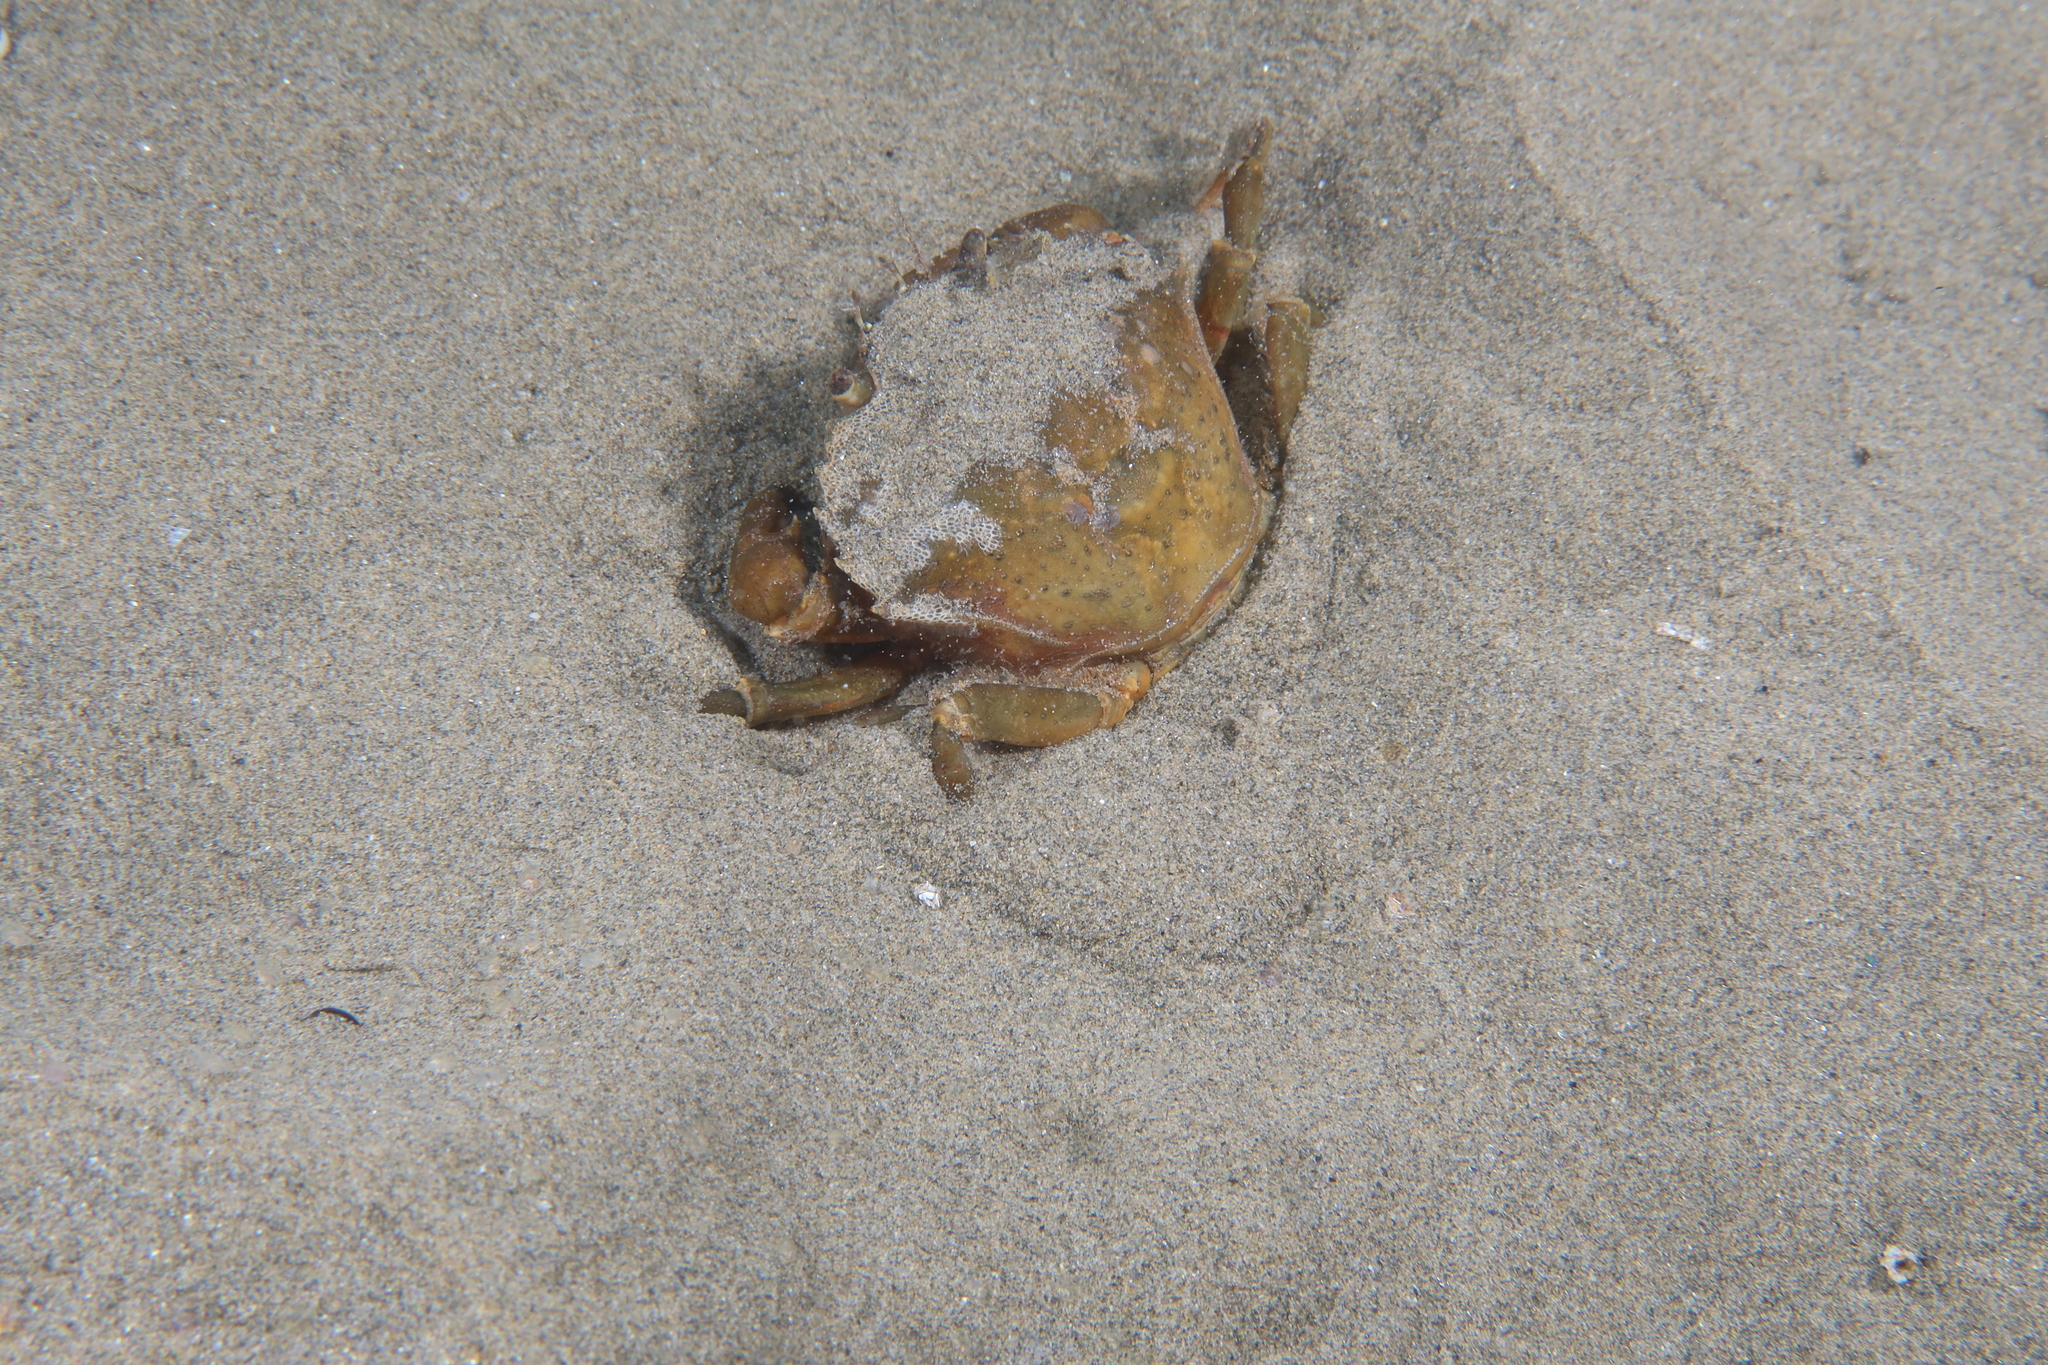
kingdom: Animalia
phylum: Arthropoda
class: Malacostraca
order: Decapoda
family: Carcinidae
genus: Carcinus
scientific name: Carcinus aestuarii
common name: Mediterranean green crab
